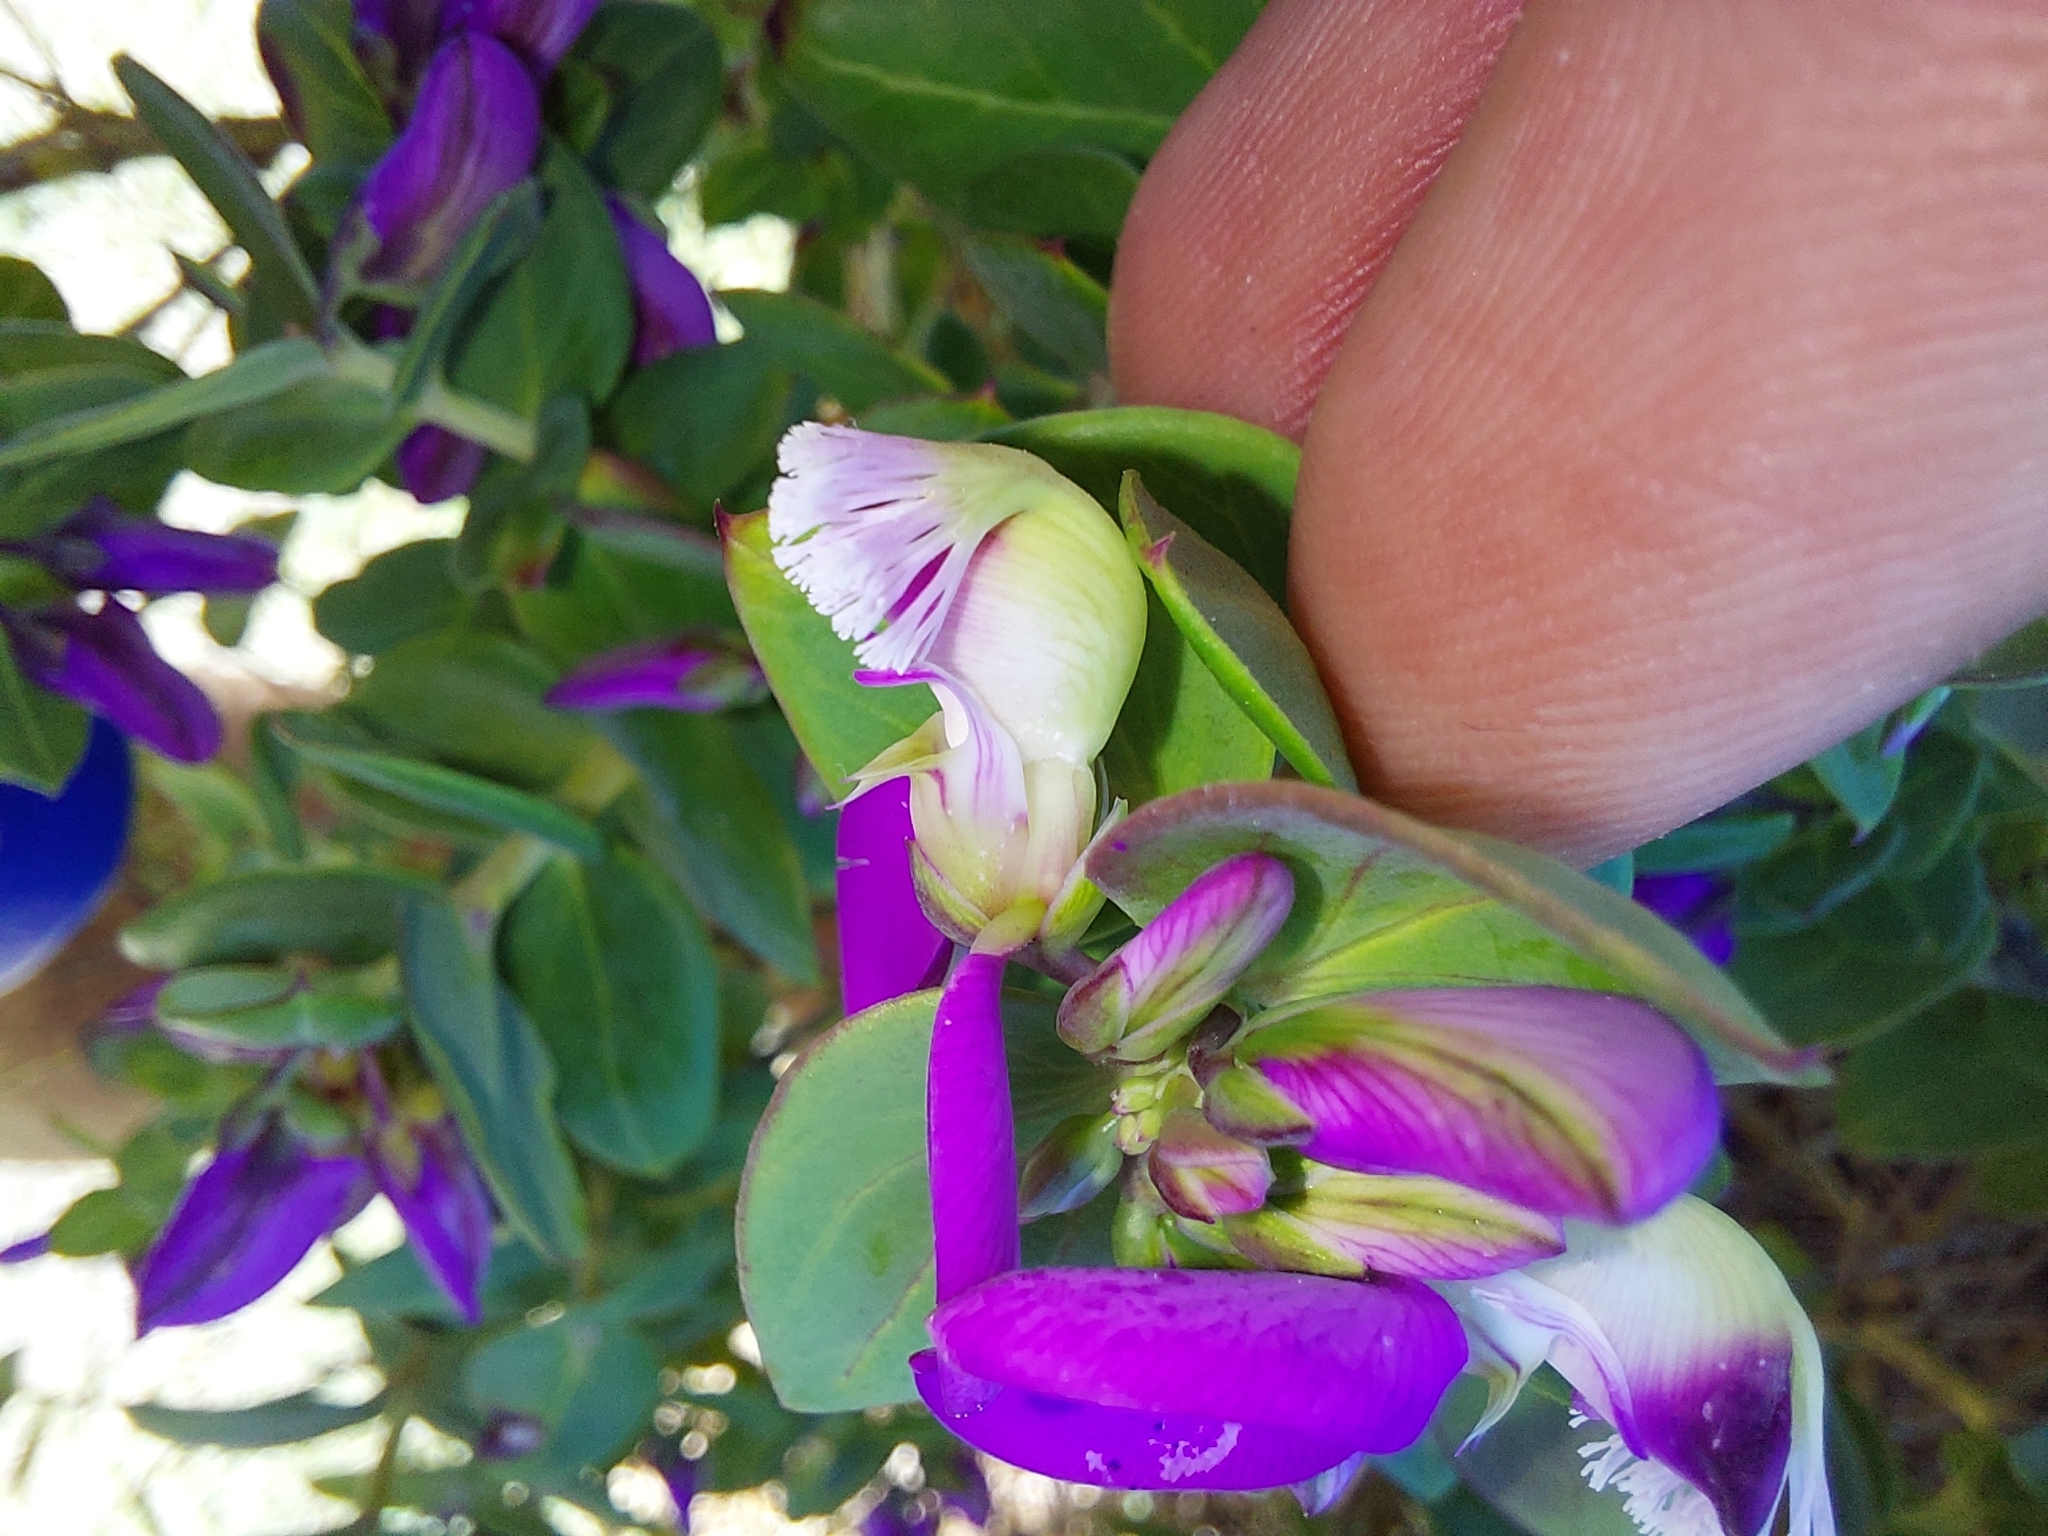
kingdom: Plantae
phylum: Tracheophyta
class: Magnoliopsida
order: Fabales
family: Polygalaceae
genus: Polygala
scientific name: Polygala fruticosa
